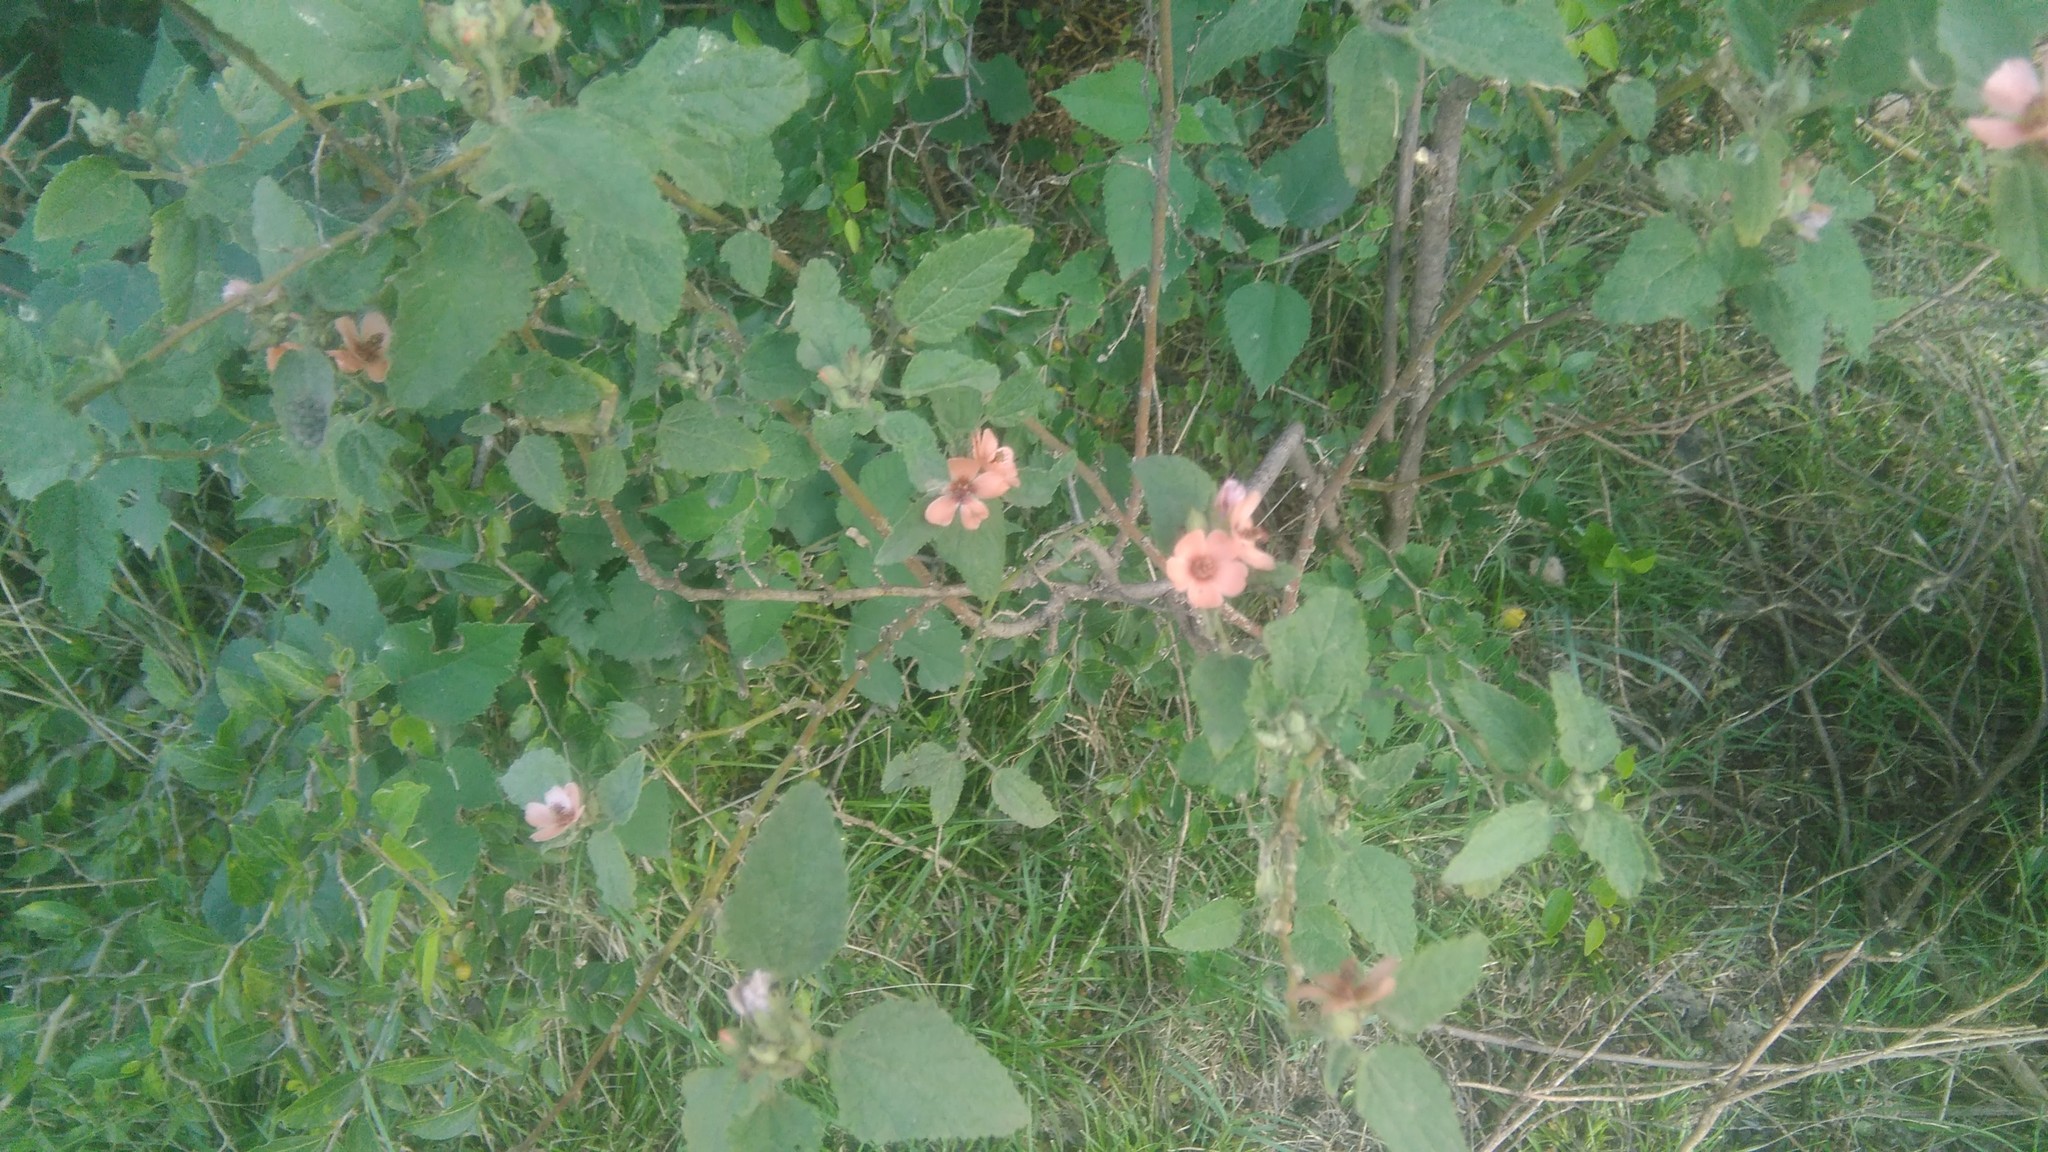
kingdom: Plantae
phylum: Tracheophyta
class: Magnoliopsida
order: Malvales
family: Malvaceae
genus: Sphaeralcea
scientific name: Sphaeralcea bonariensis
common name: Latin globemallow
